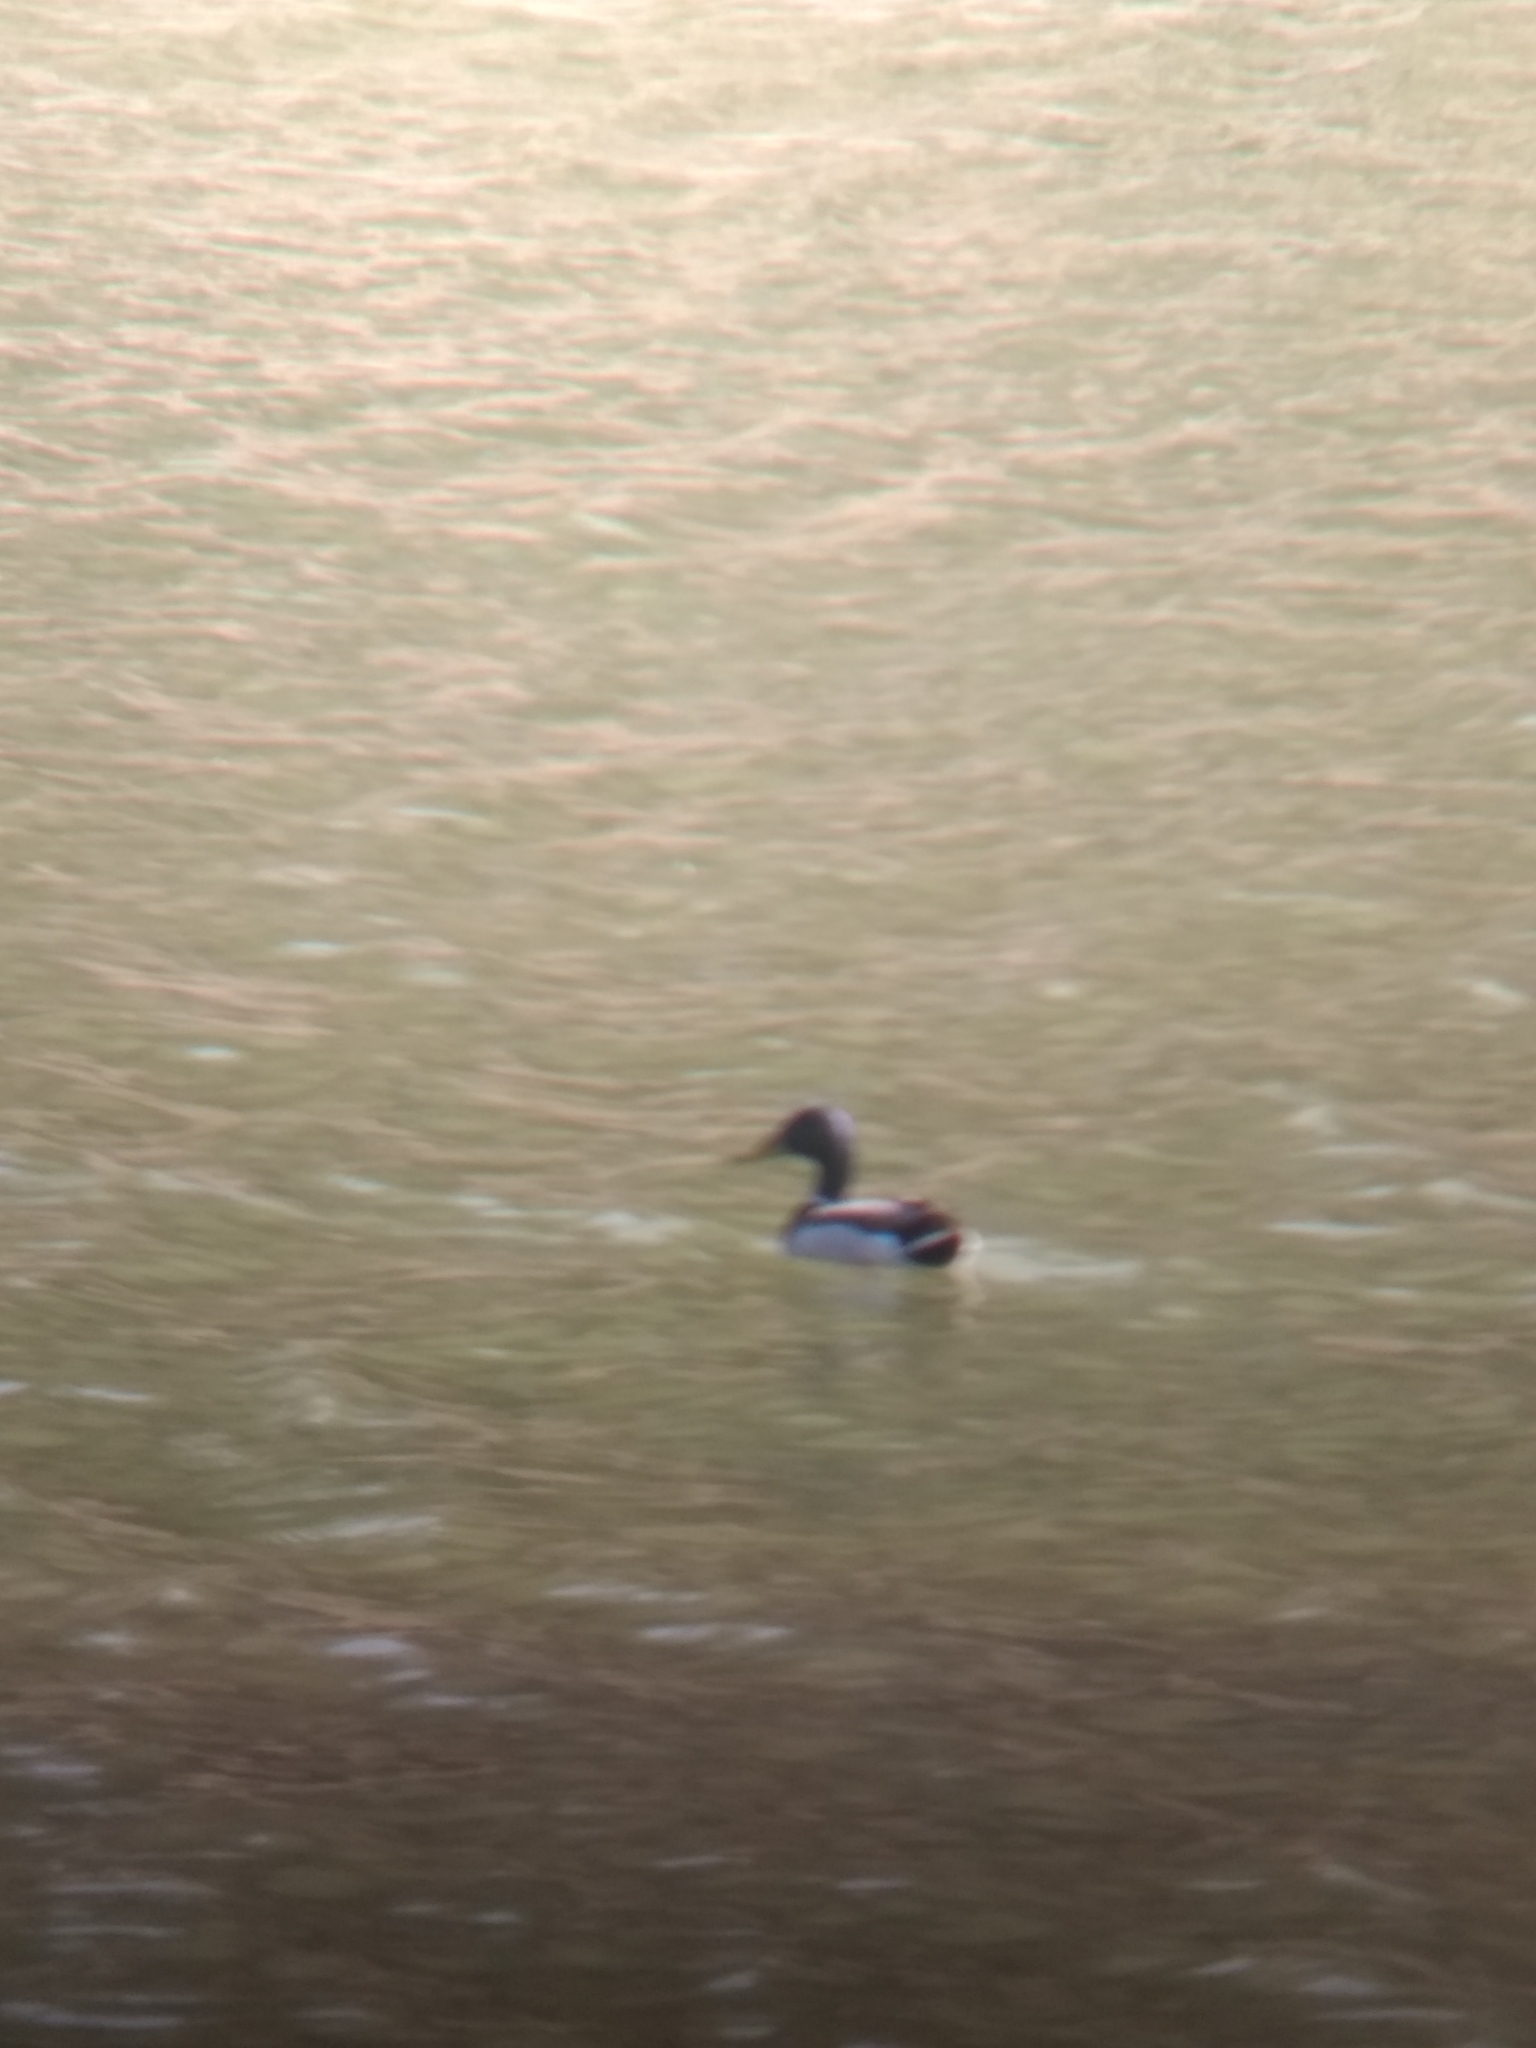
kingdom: Animalia
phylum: Chordata
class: Aves
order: Anseriformes
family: Anatidae
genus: Anas
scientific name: Anas platyrhynchos
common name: Mallard
